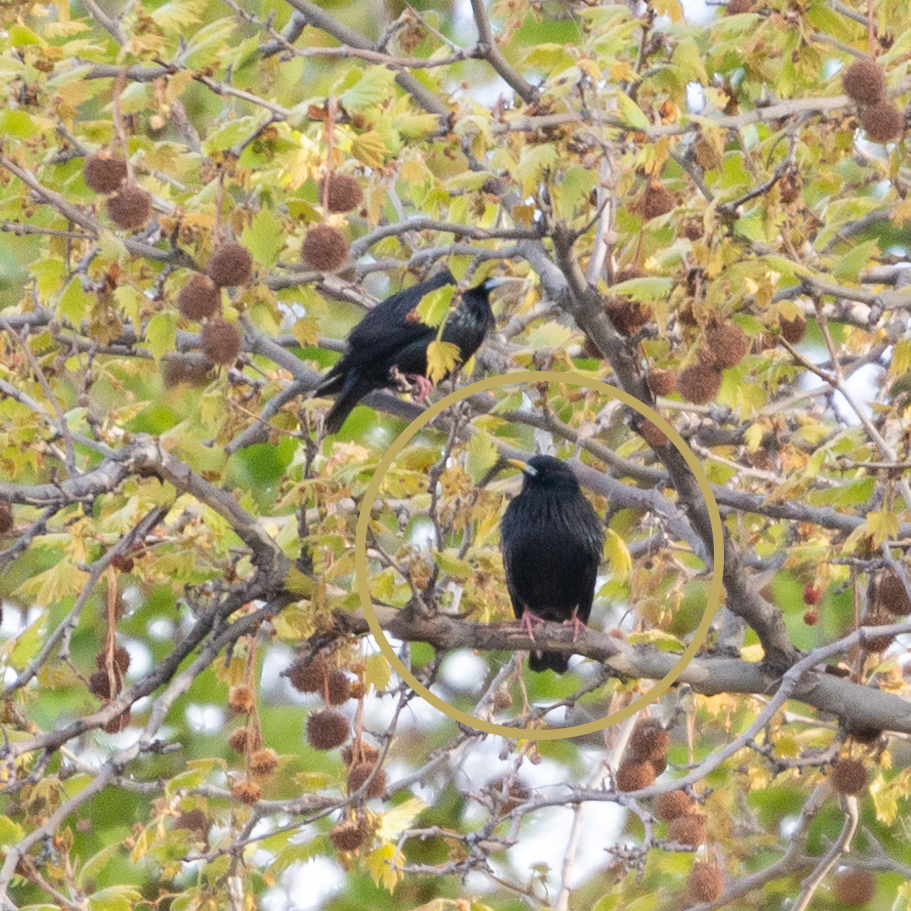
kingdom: Animalia
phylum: Chordata
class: Aves
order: Passeriformes
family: Sturnidae
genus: Sturnus
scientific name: Sturnus unicolor
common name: Spotless starling
